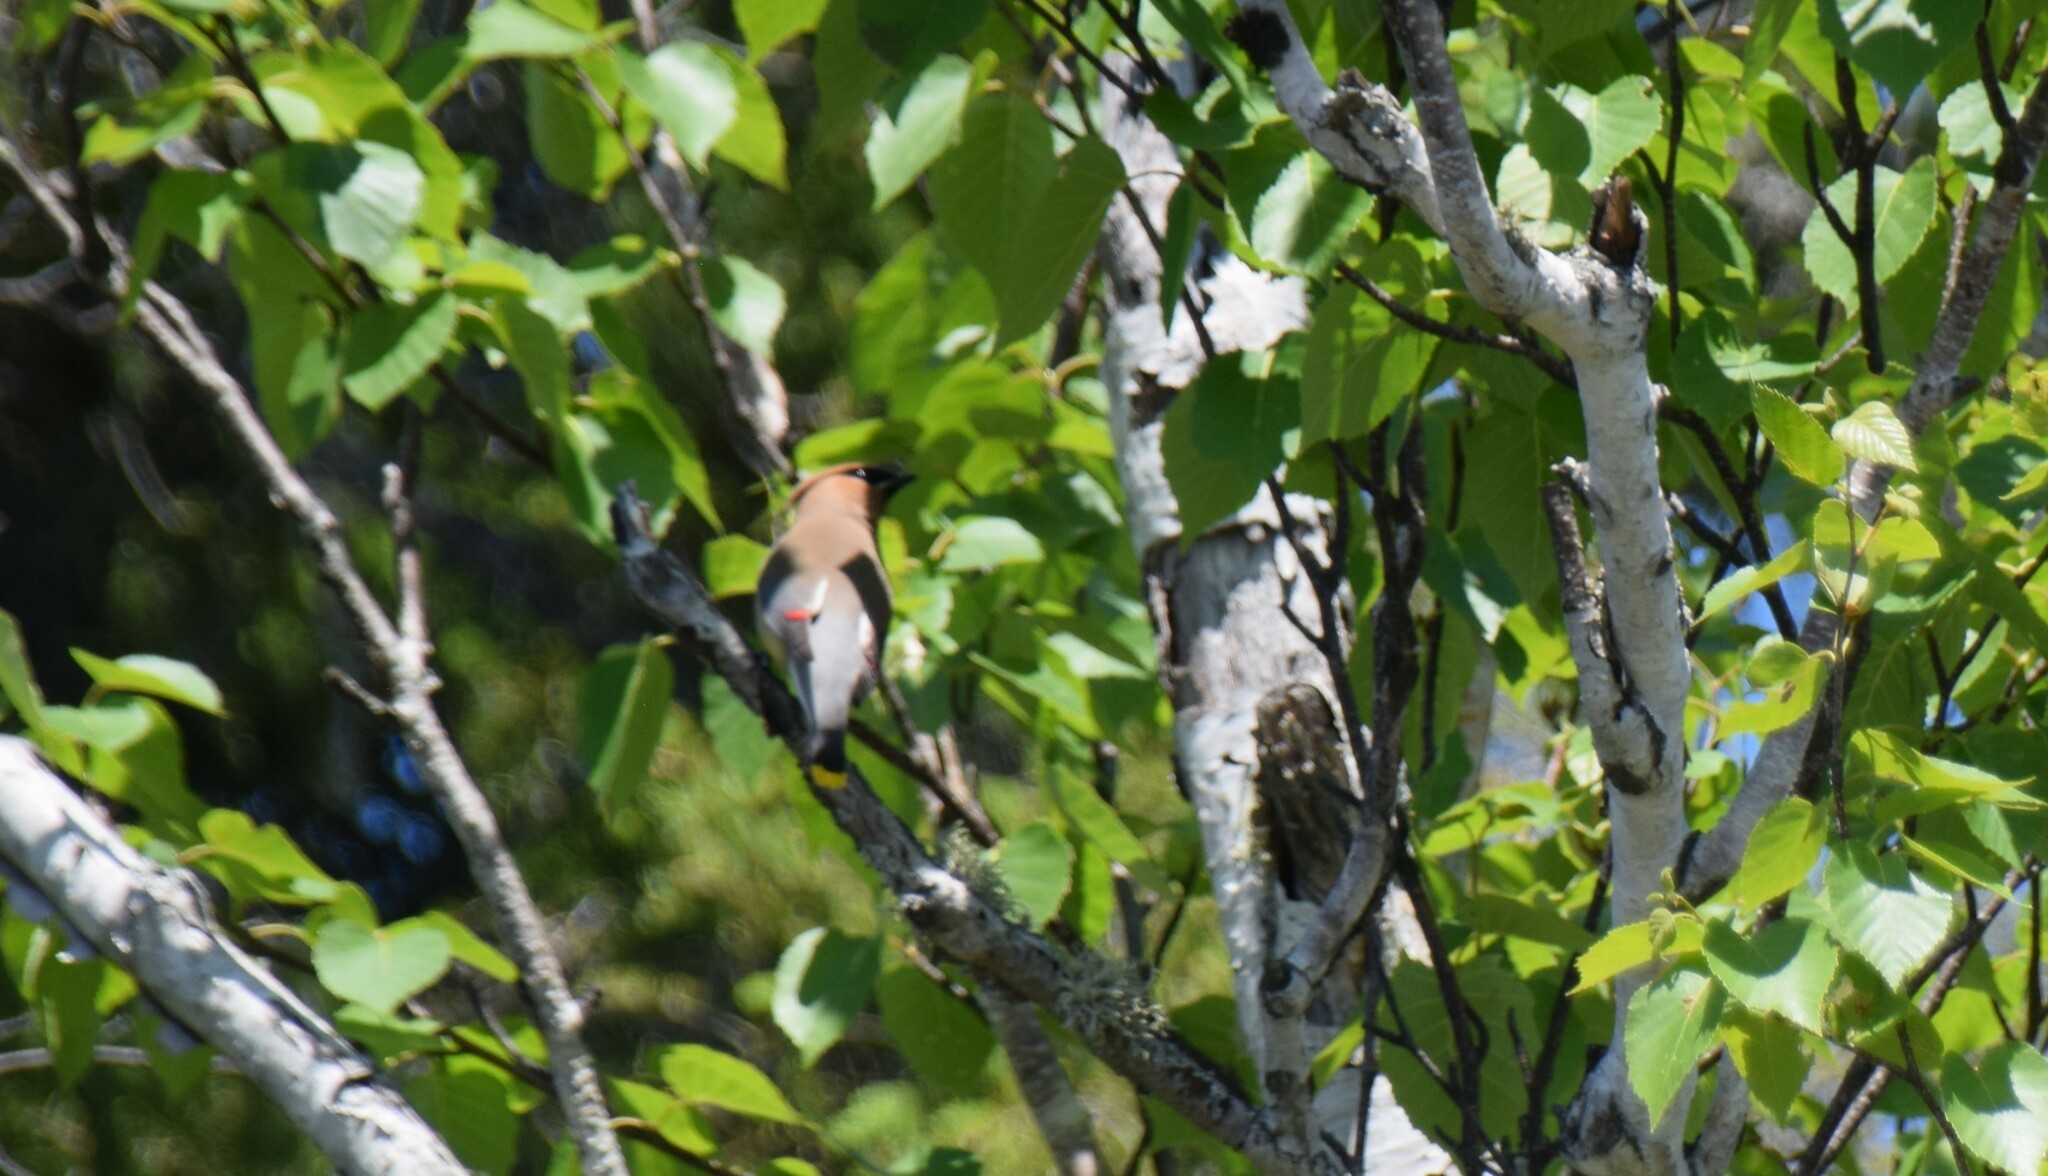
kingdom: Animalia
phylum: Chordata
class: Aves
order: Passeriformes
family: Bombycillidae
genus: Bombycilla
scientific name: Bombycilla cedrorum
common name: Cedar waxwing
